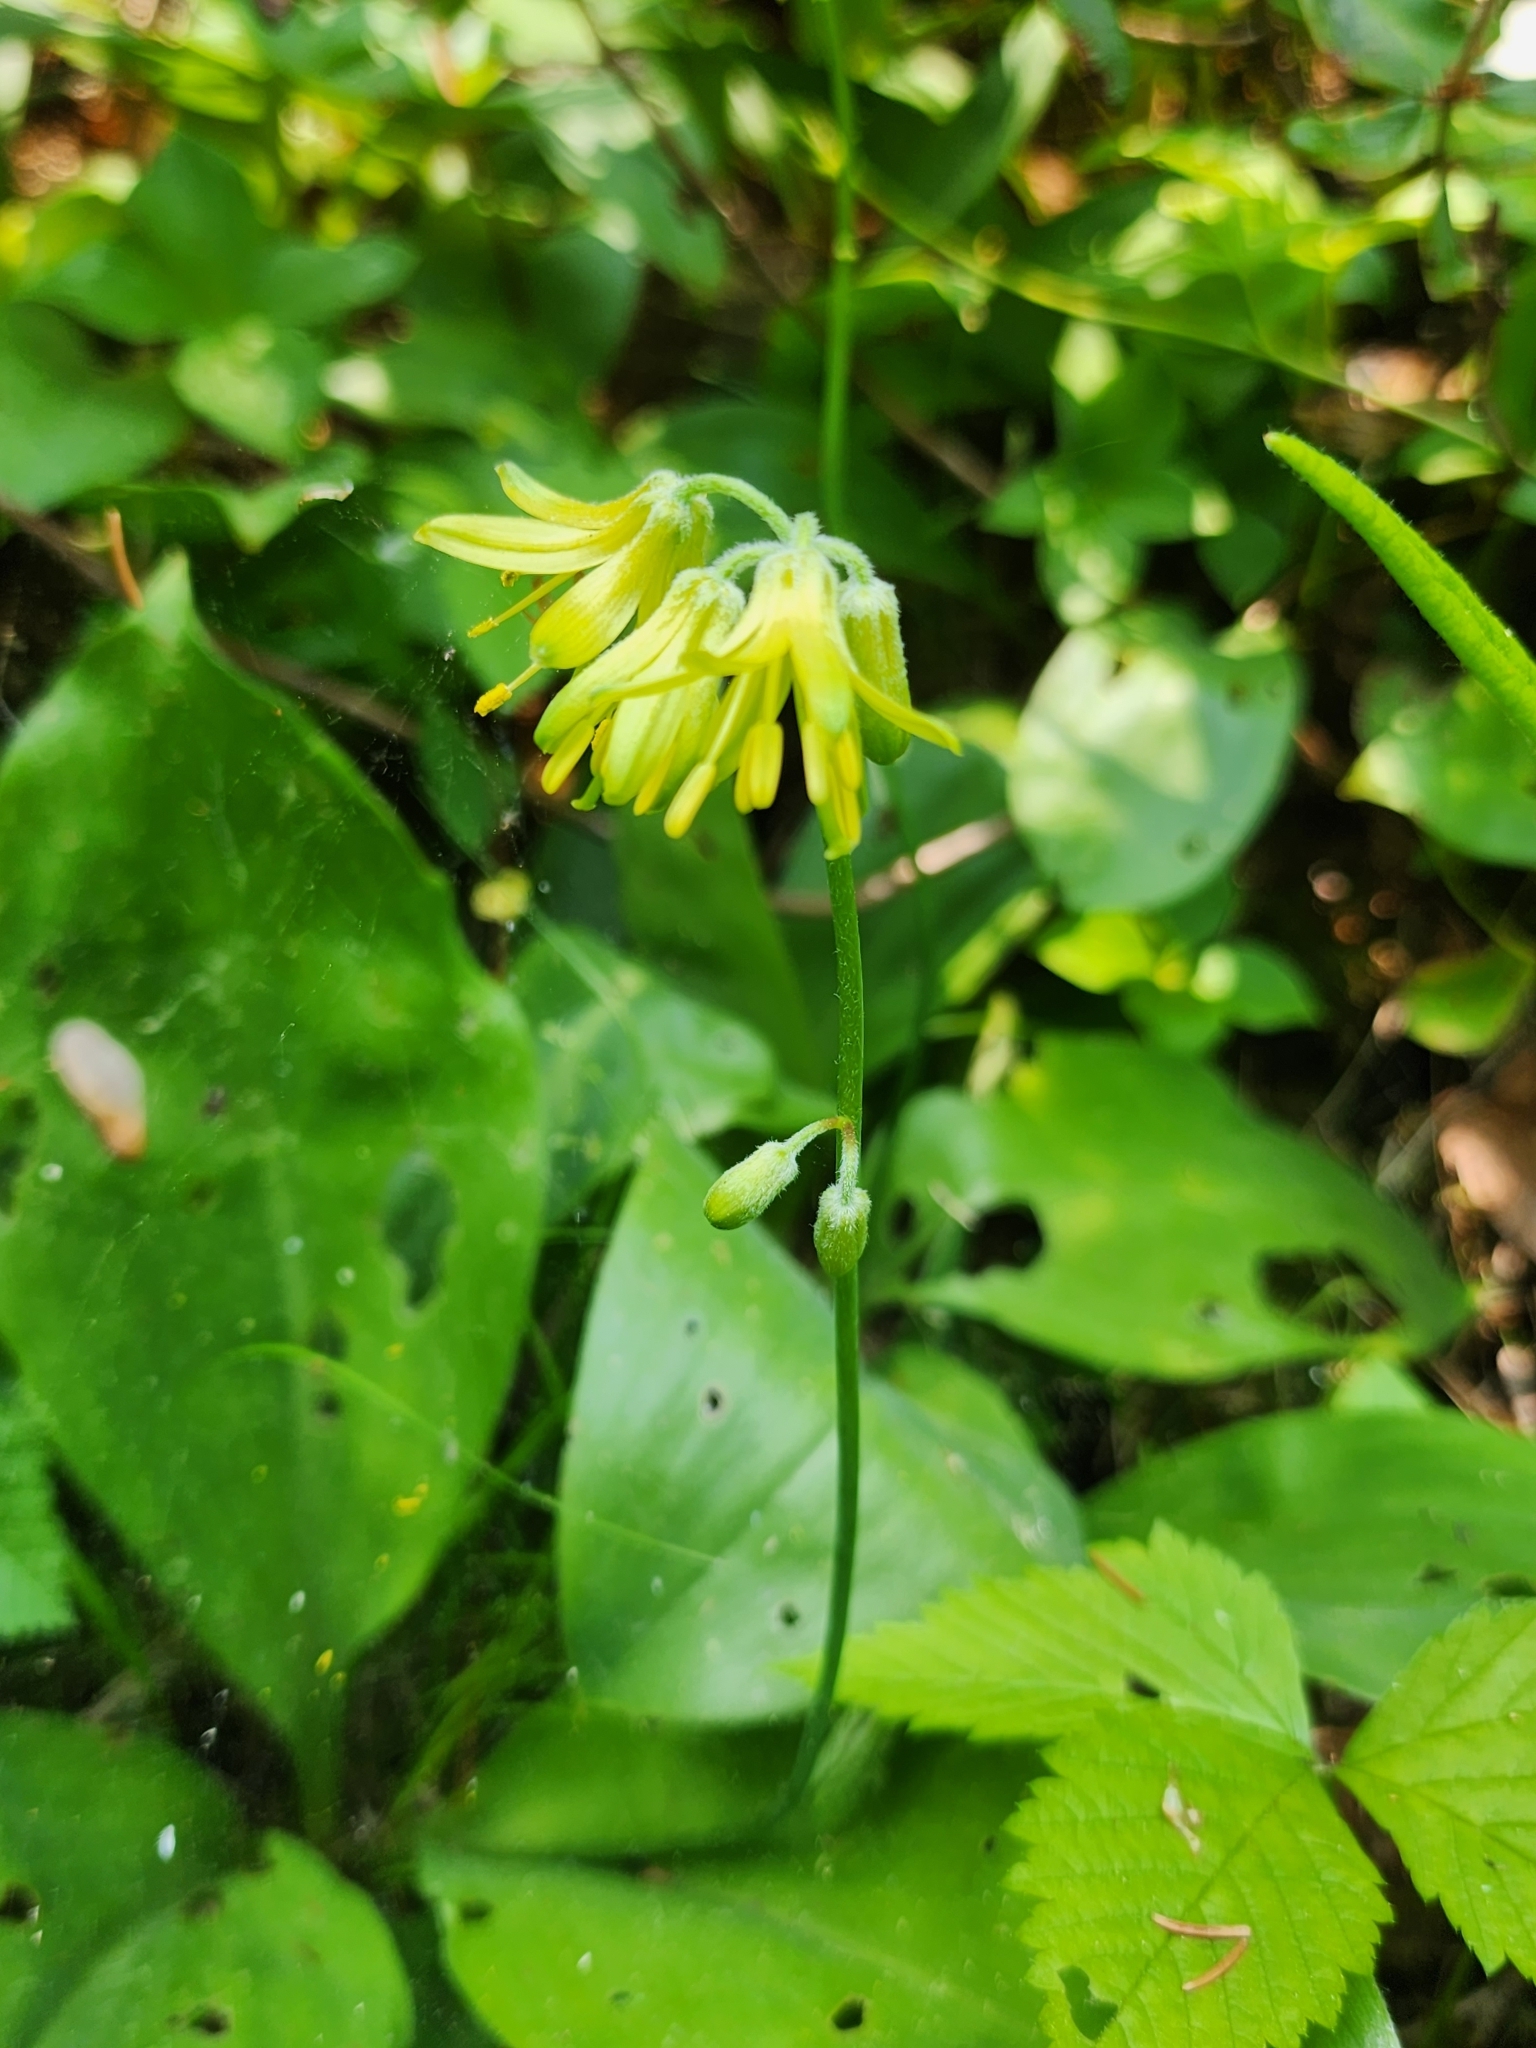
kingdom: Plantae
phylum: Tracheophyta
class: Liliopsida
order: Liliales
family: Liliaceae
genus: Clintonia
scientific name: Clintonia borealis
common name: Yellow clintonia
